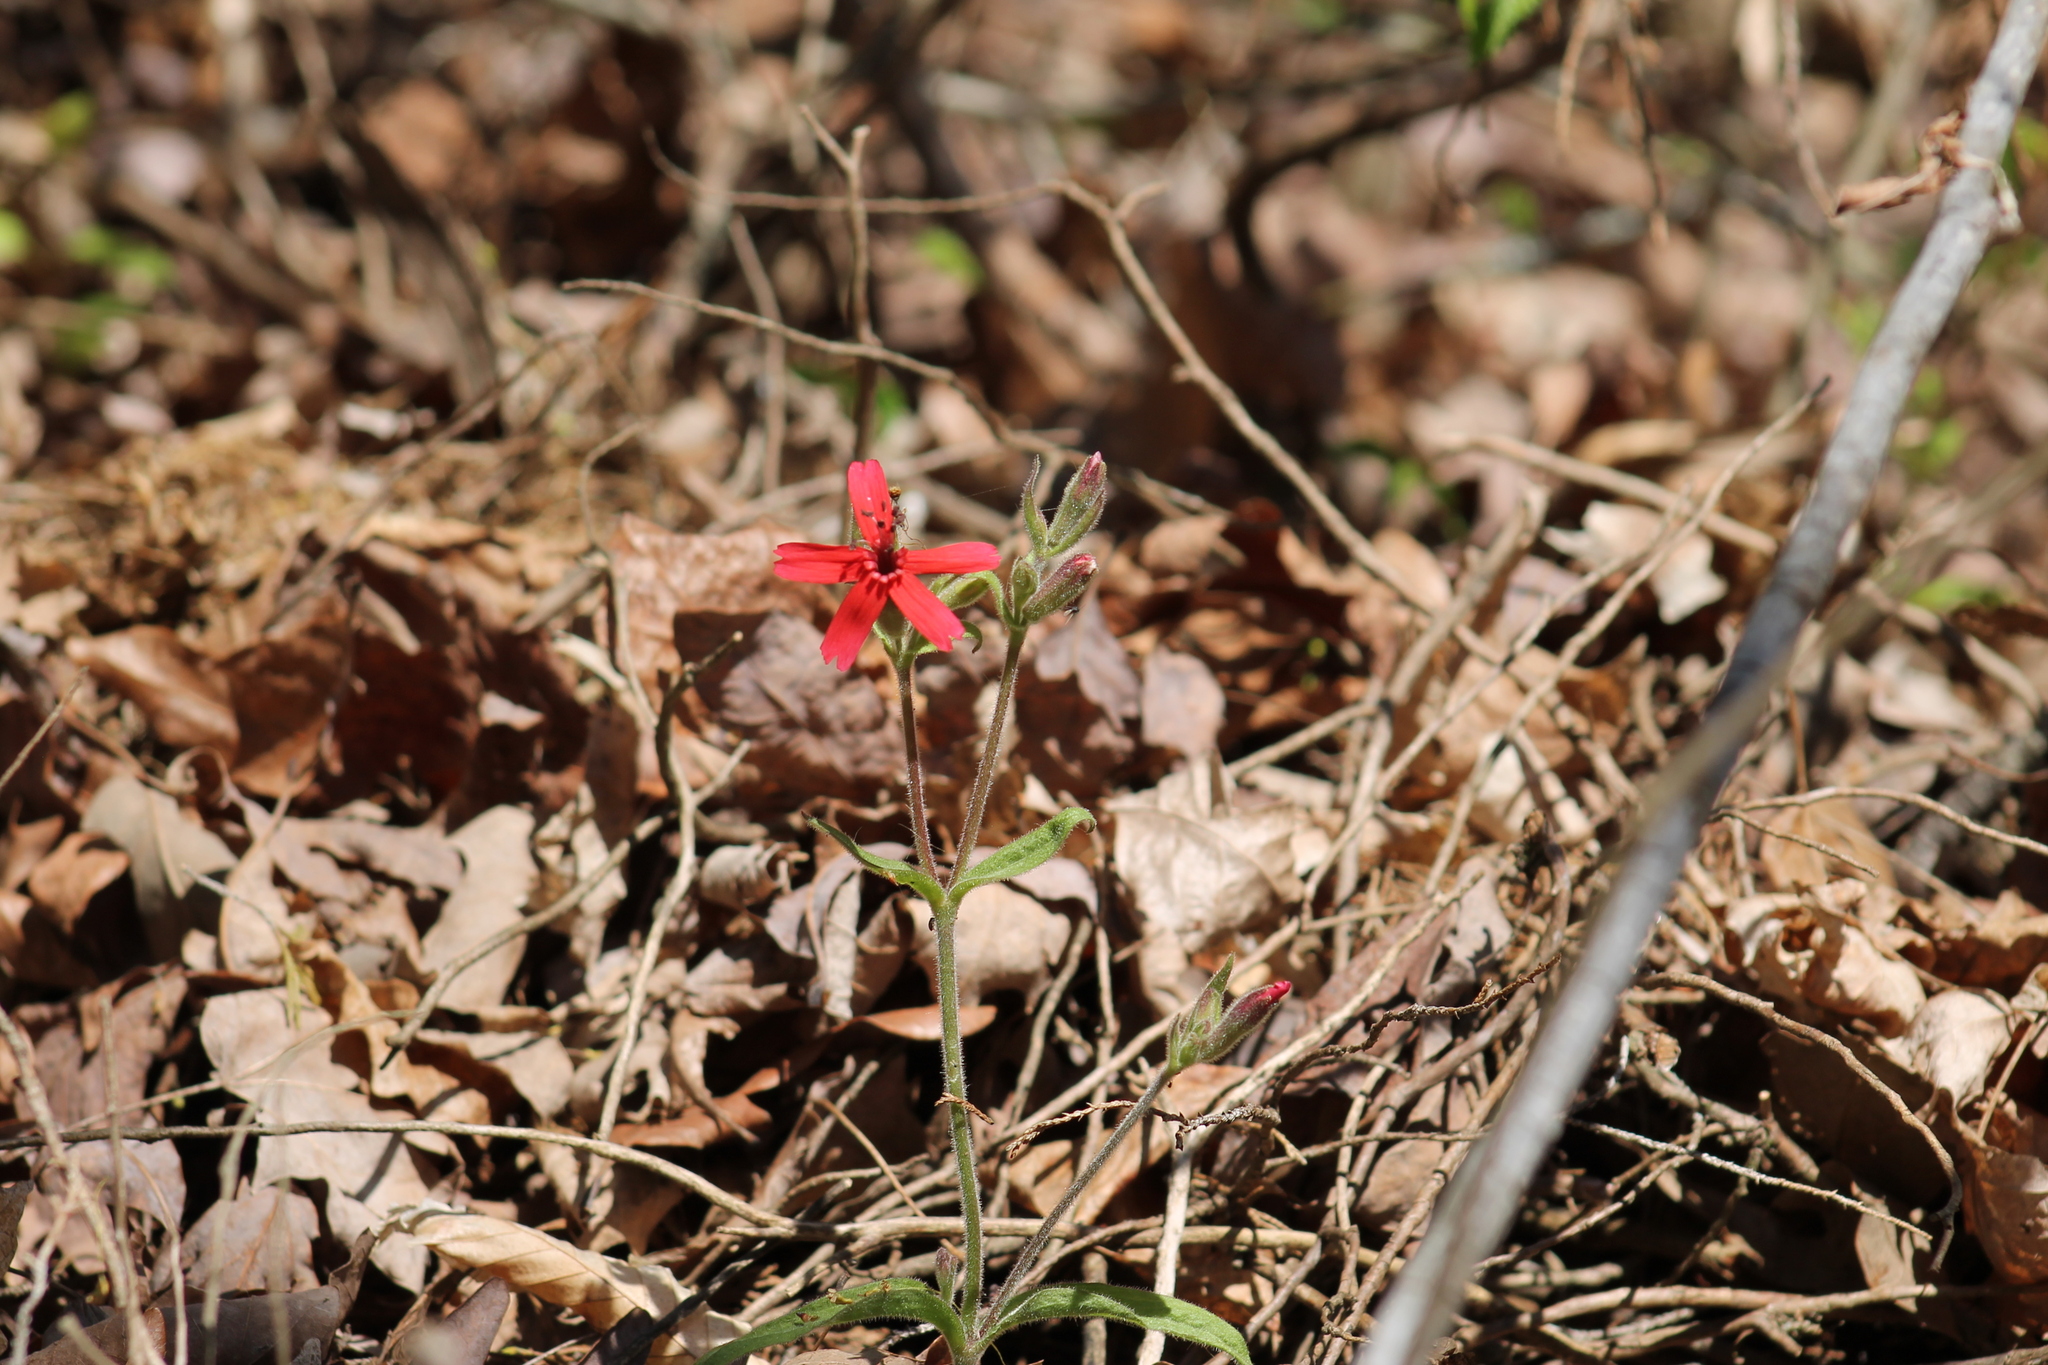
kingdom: Plantae
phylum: Tracheophyta
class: Magnoliopsida
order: Caryophyllales
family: Caryophyllaceae
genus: Silene
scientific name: Silene virginica
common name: Fire-pink
